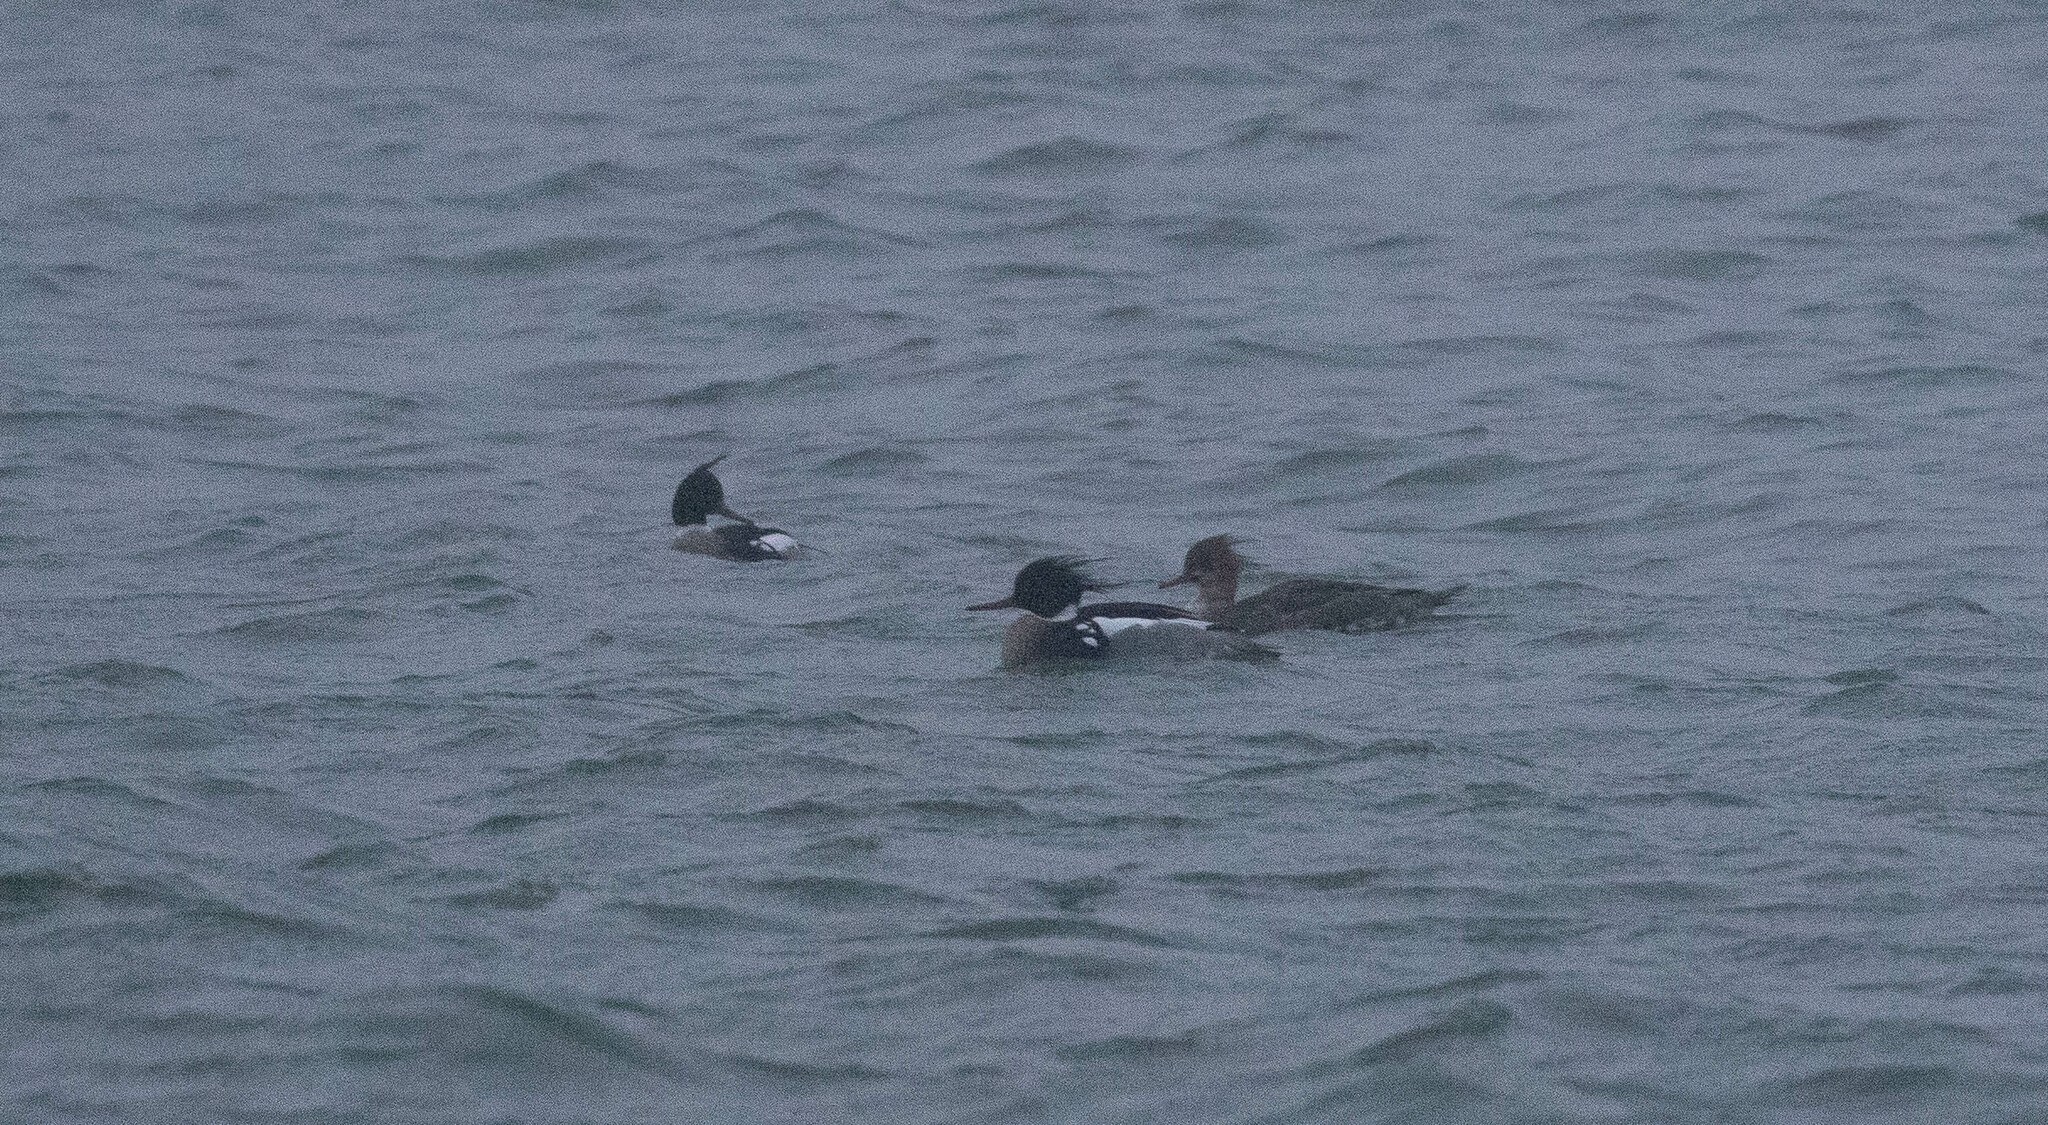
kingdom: Animalia
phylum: Chordata
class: Aves
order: Anseriformes
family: Anatidae
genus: Mergus
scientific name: Mergus serrator
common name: Red-breasted merganser
